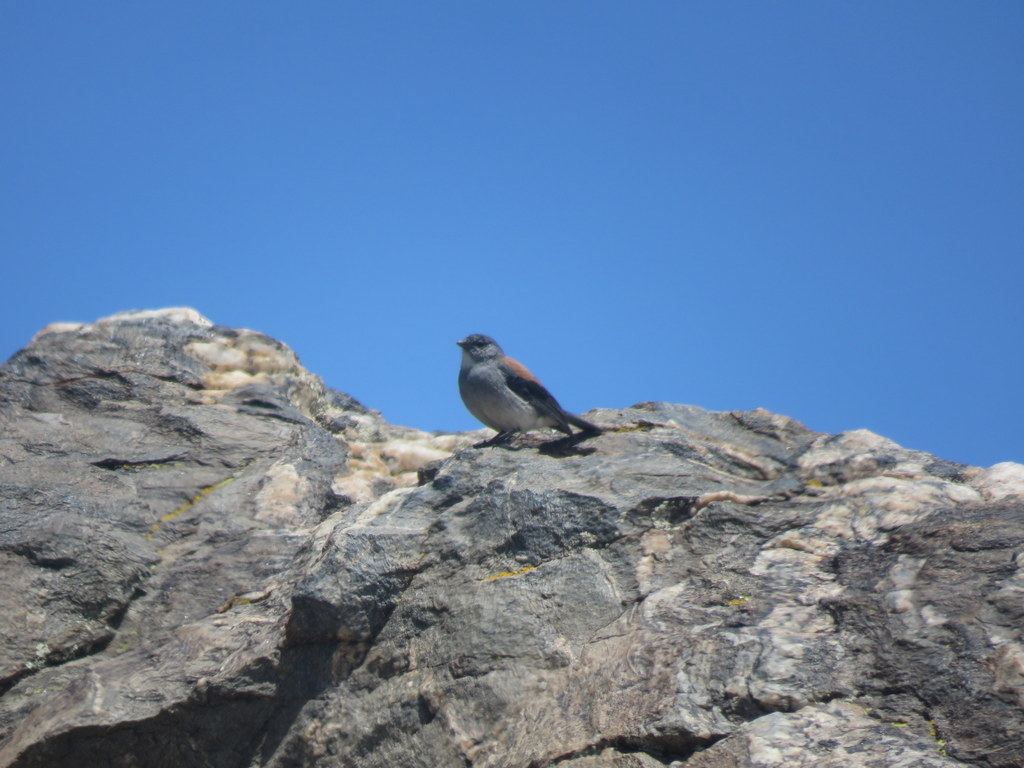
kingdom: Animalia
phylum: Chordata
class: Aves
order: Passeriformes
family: Thraupidae
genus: Idiopsar
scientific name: Idiopsar dorsalis
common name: Red-backed sierra finch
